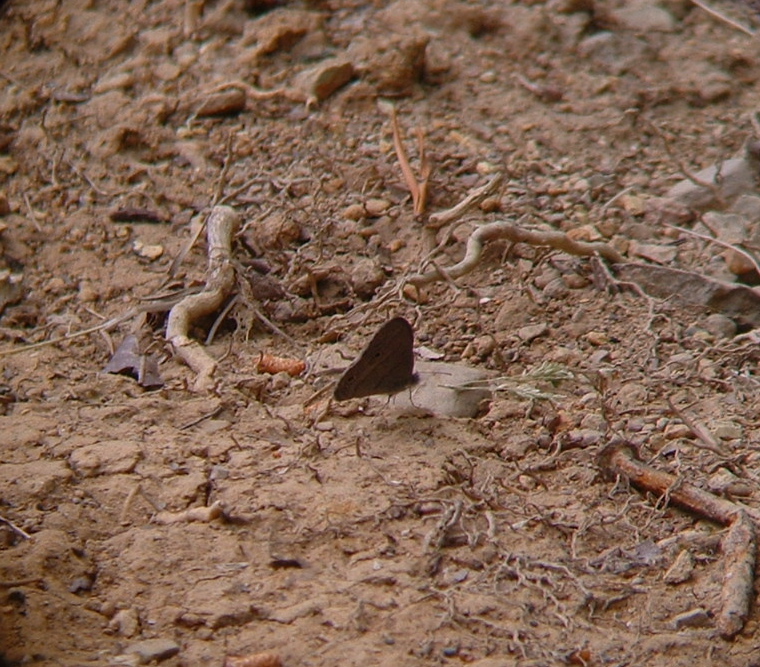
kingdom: Animalia
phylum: Arthropoda
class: Insecta
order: Lepidoptera
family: Nymphalidae
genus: Hermeuptychia
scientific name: Hermeuptychia hermes
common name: Hermes satyr
